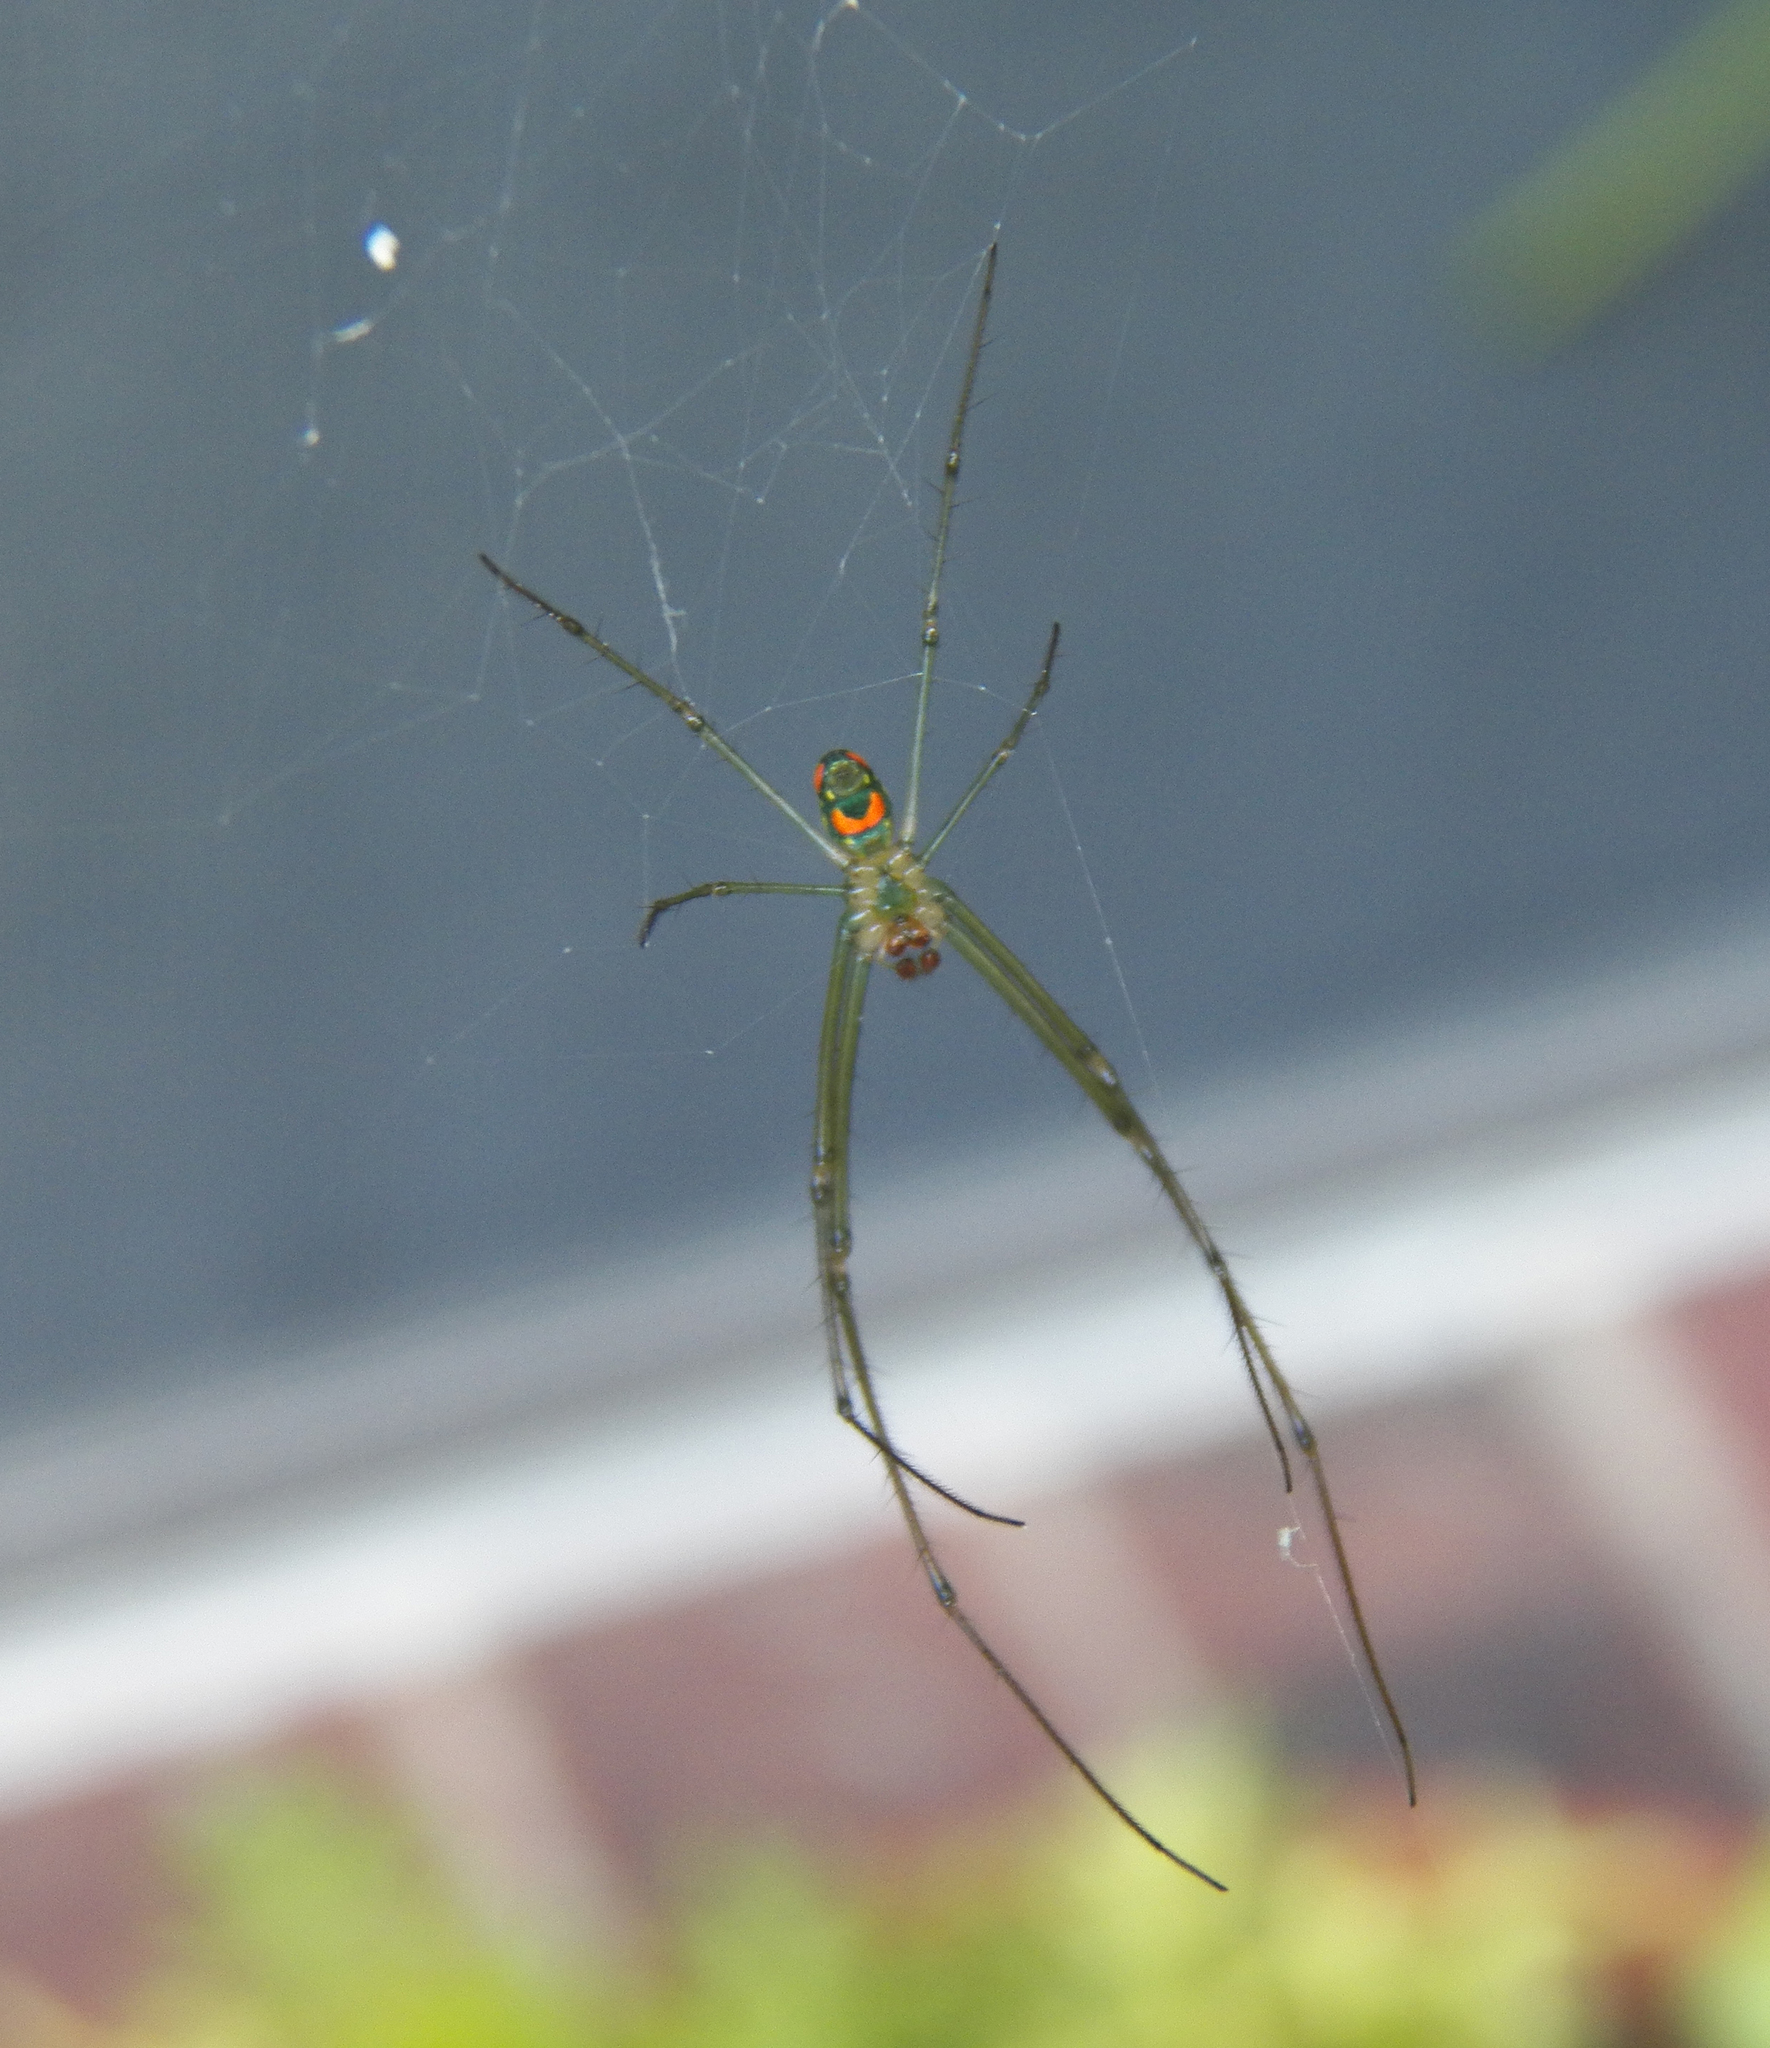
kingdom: Animalia
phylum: Arthropoda
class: Arachnida
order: Araneae
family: Tetragnathidae
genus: Leucauge
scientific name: Leucauge argyrobapta
